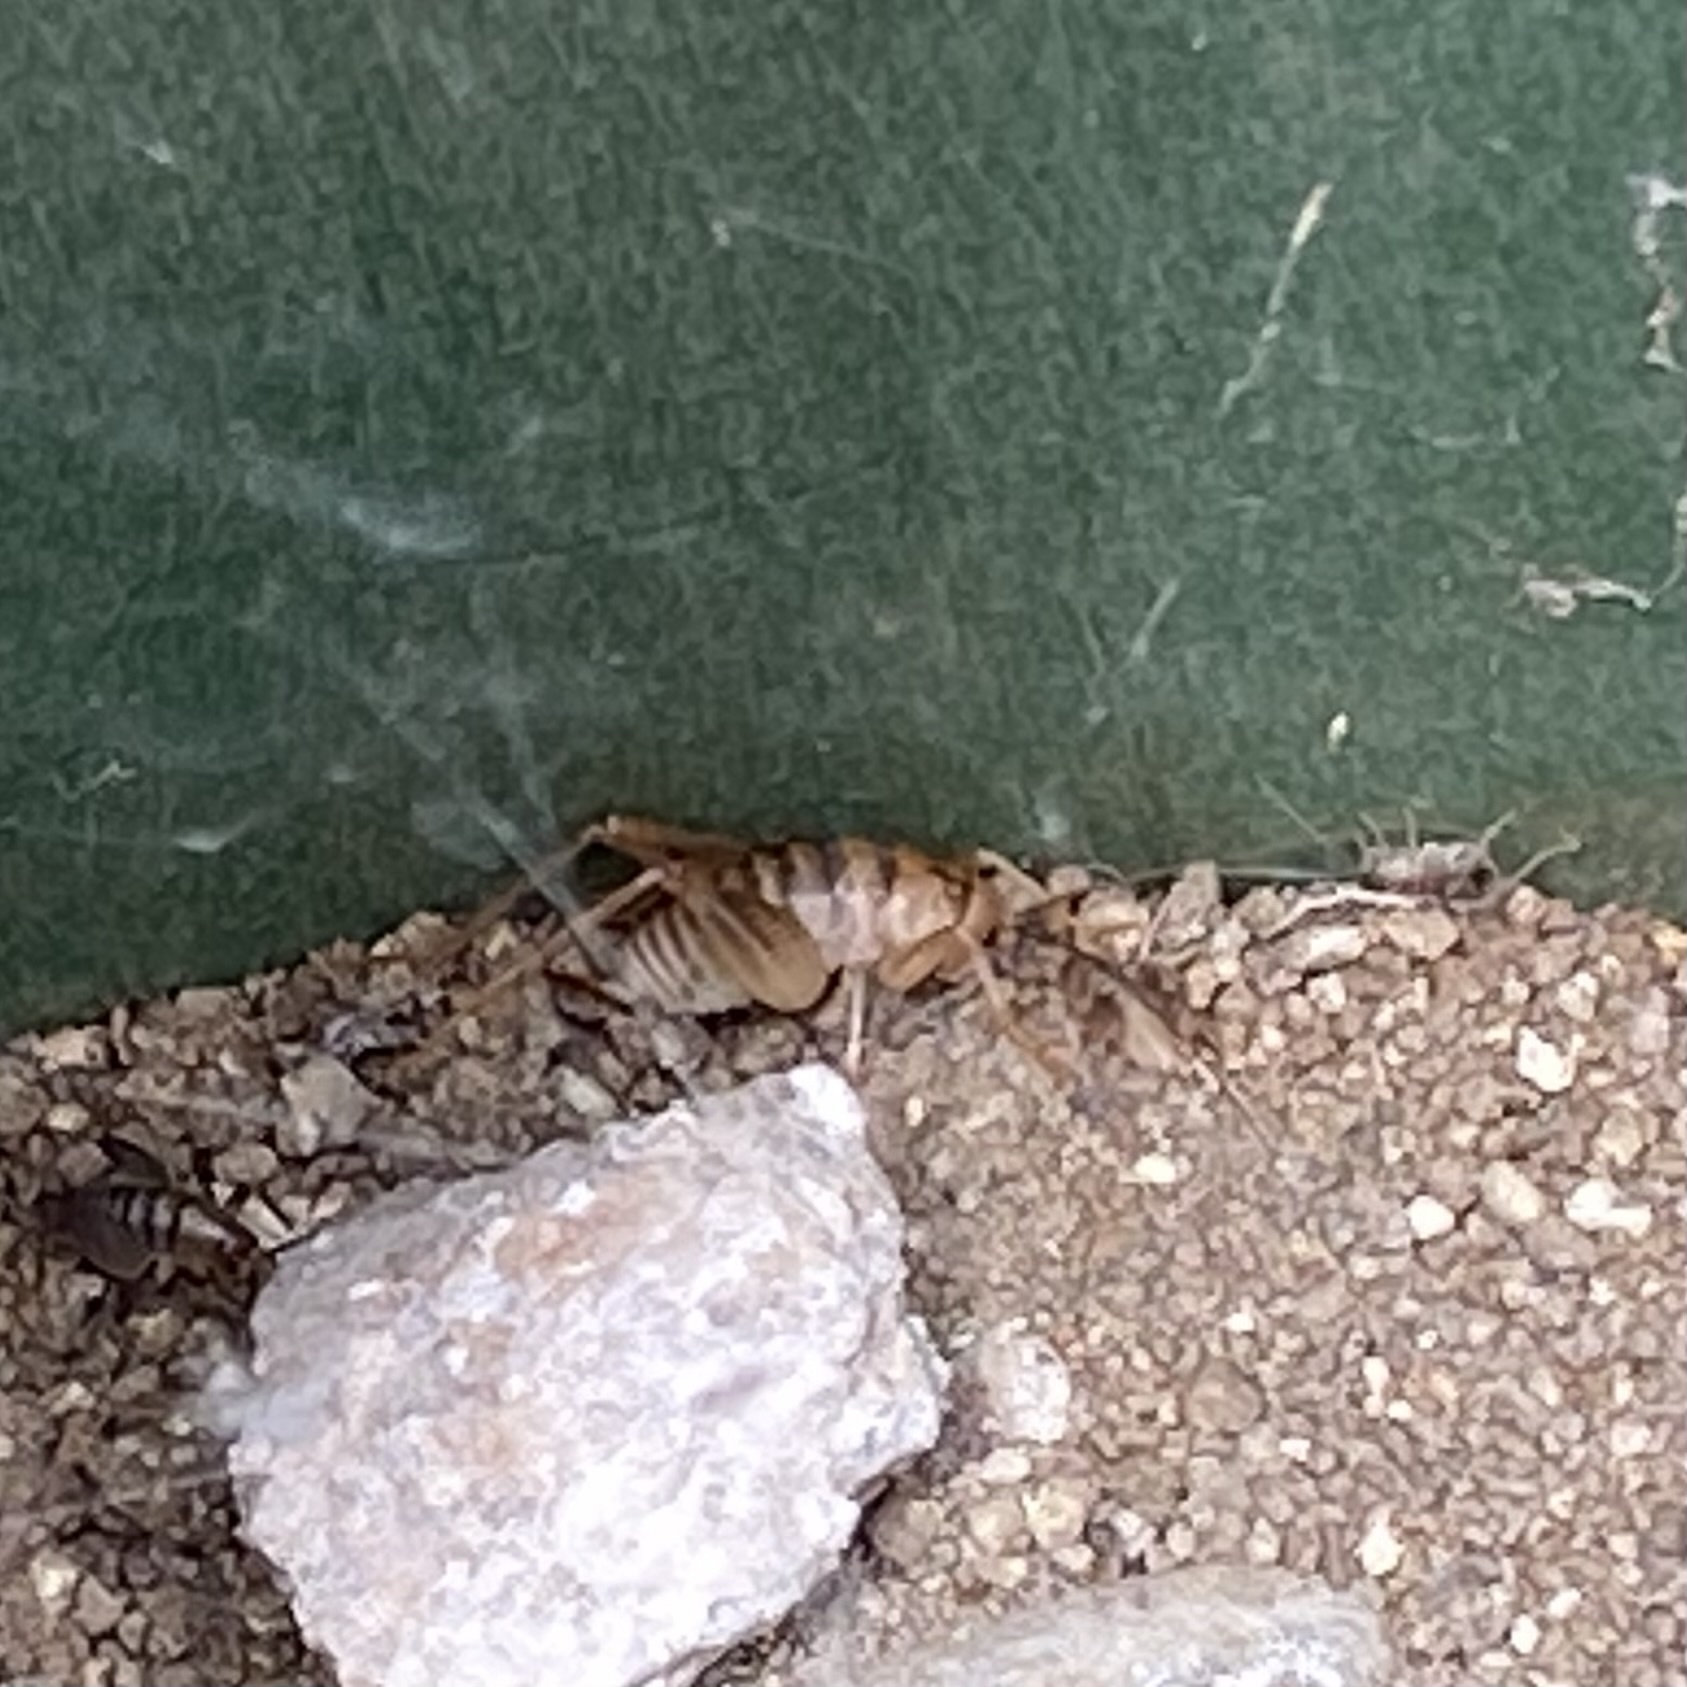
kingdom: Animalia
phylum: Arthropoda
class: Insecta
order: Orthoptera
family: Rhaphidophoridae
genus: Ceuthophilus
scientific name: Ceuthophilus
